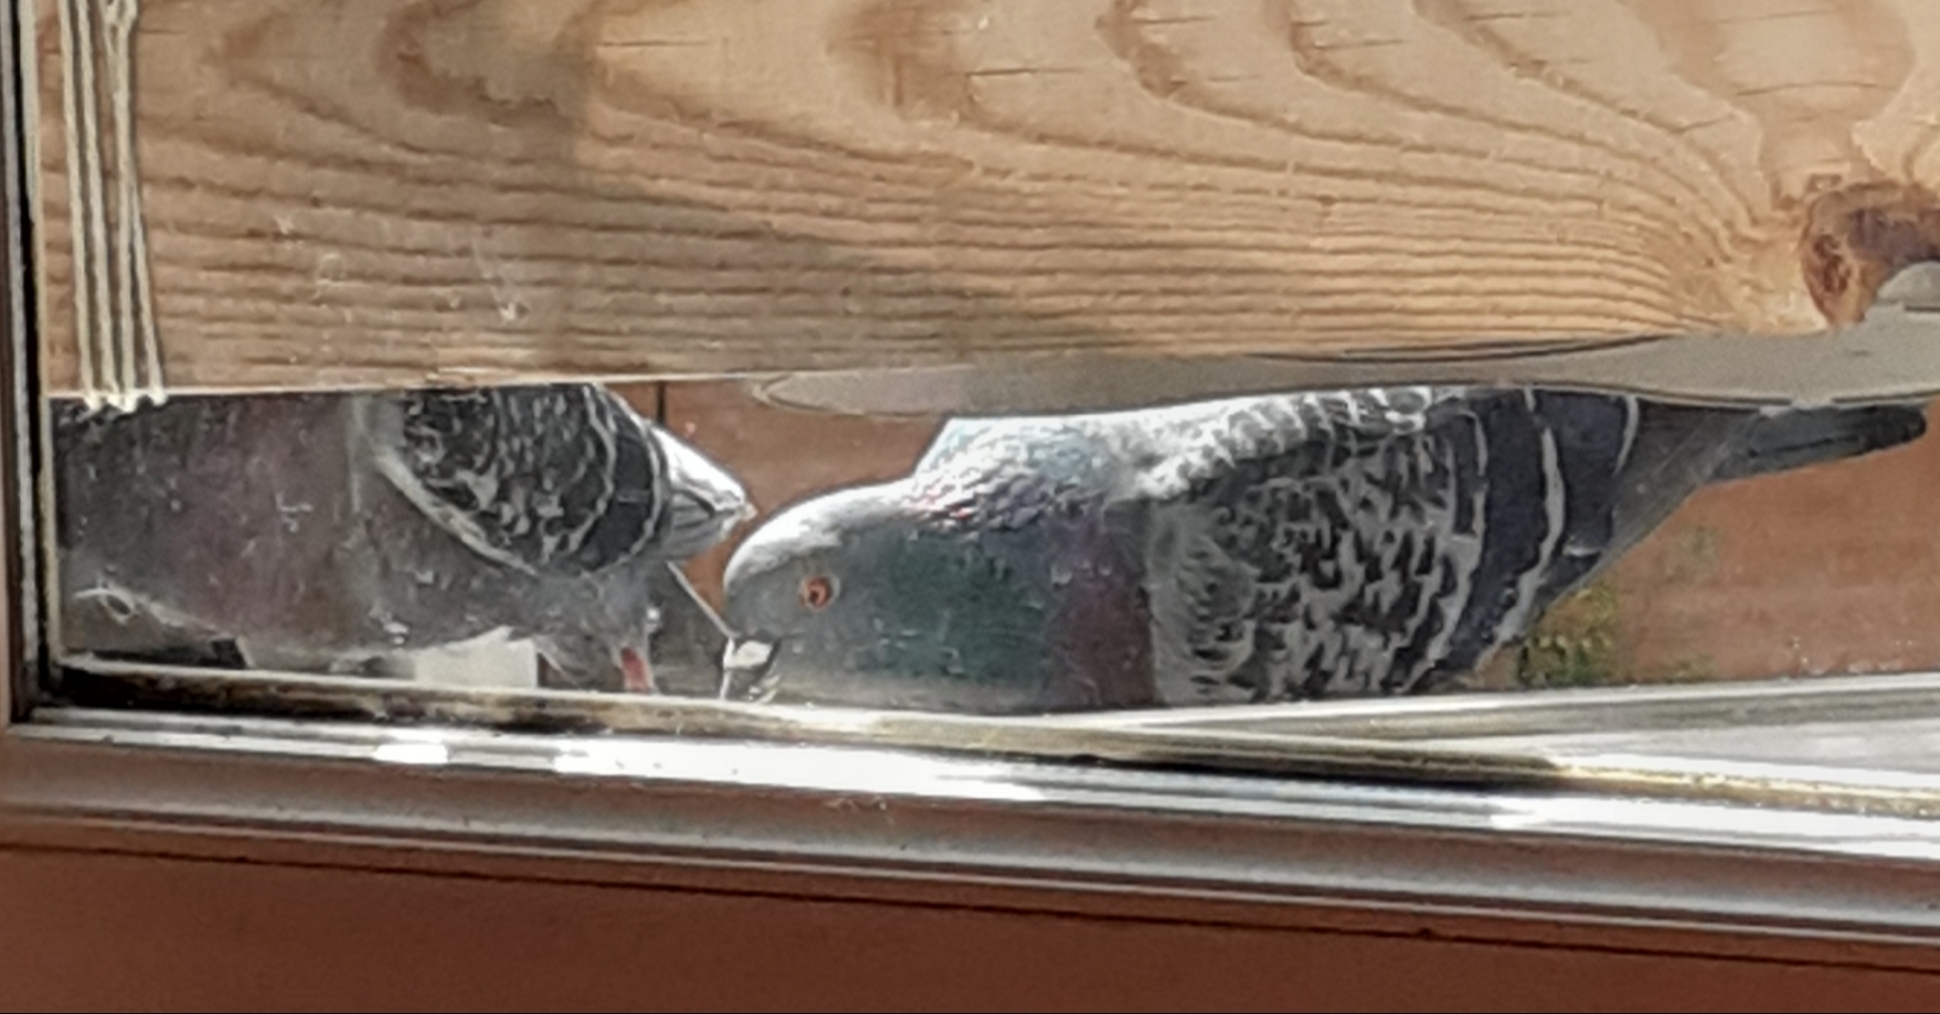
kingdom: Animalia
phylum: Chordata
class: Aves
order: Columbiformes
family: Columbidae
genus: Columba
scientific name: Columba livia
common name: Rock pigeon
